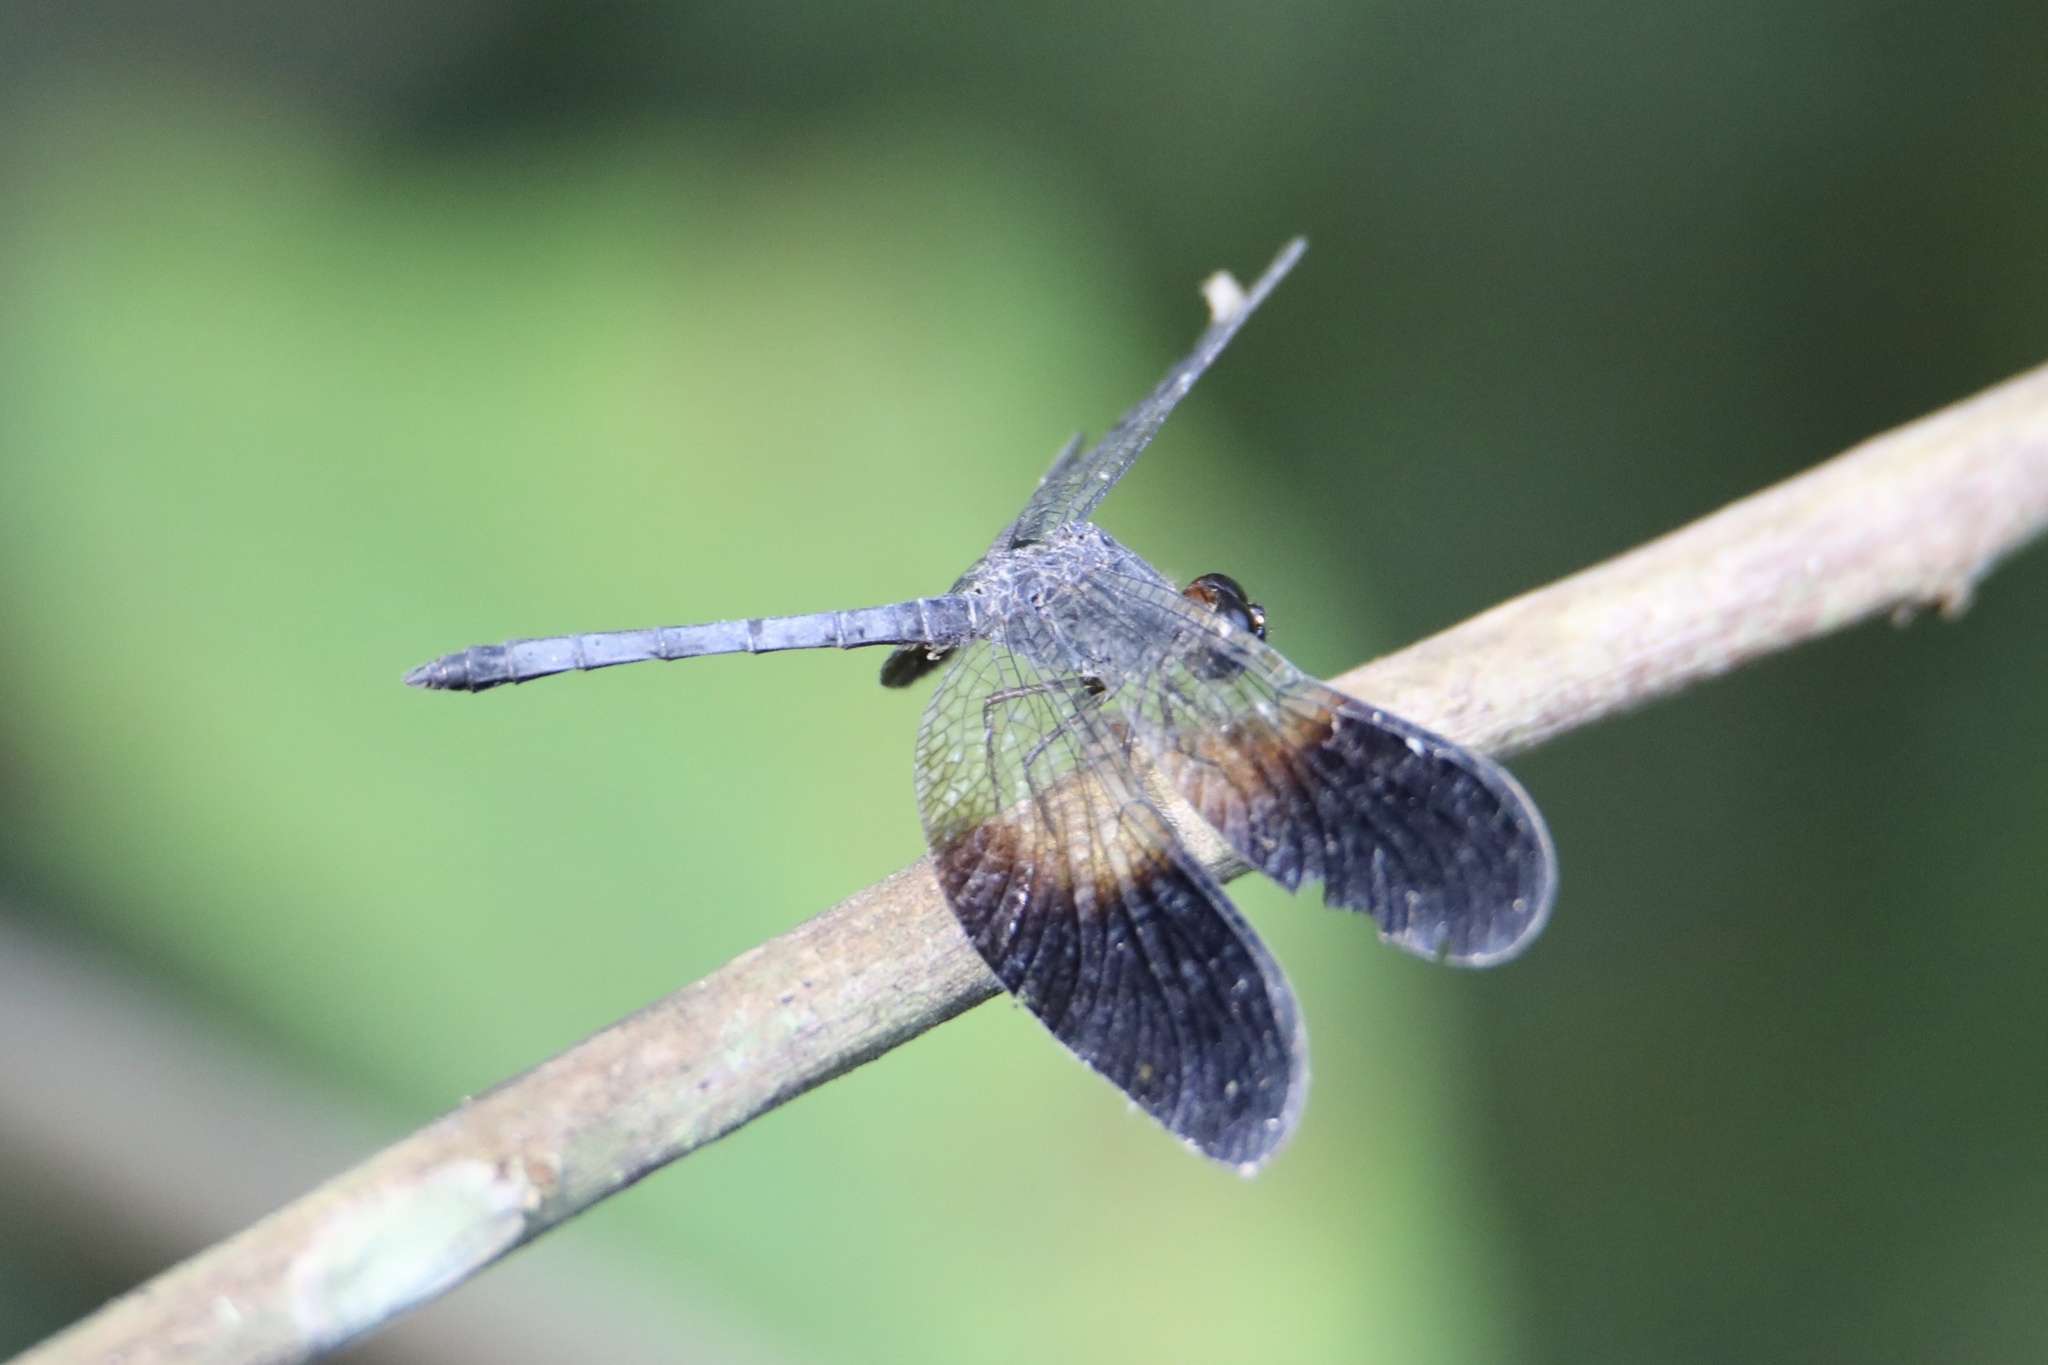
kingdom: Animalia
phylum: Arthropoda
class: Insecta
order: Odonata
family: Libellulidae
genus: Uracis
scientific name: Uracis fastigiata
